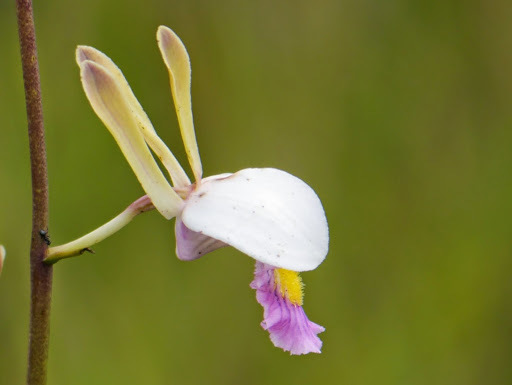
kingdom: Plantae
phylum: Tracheophyta
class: Liliopsida
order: Asparagales
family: Orchidaceae
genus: Eulophia
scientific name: Eulophia caricifolia
